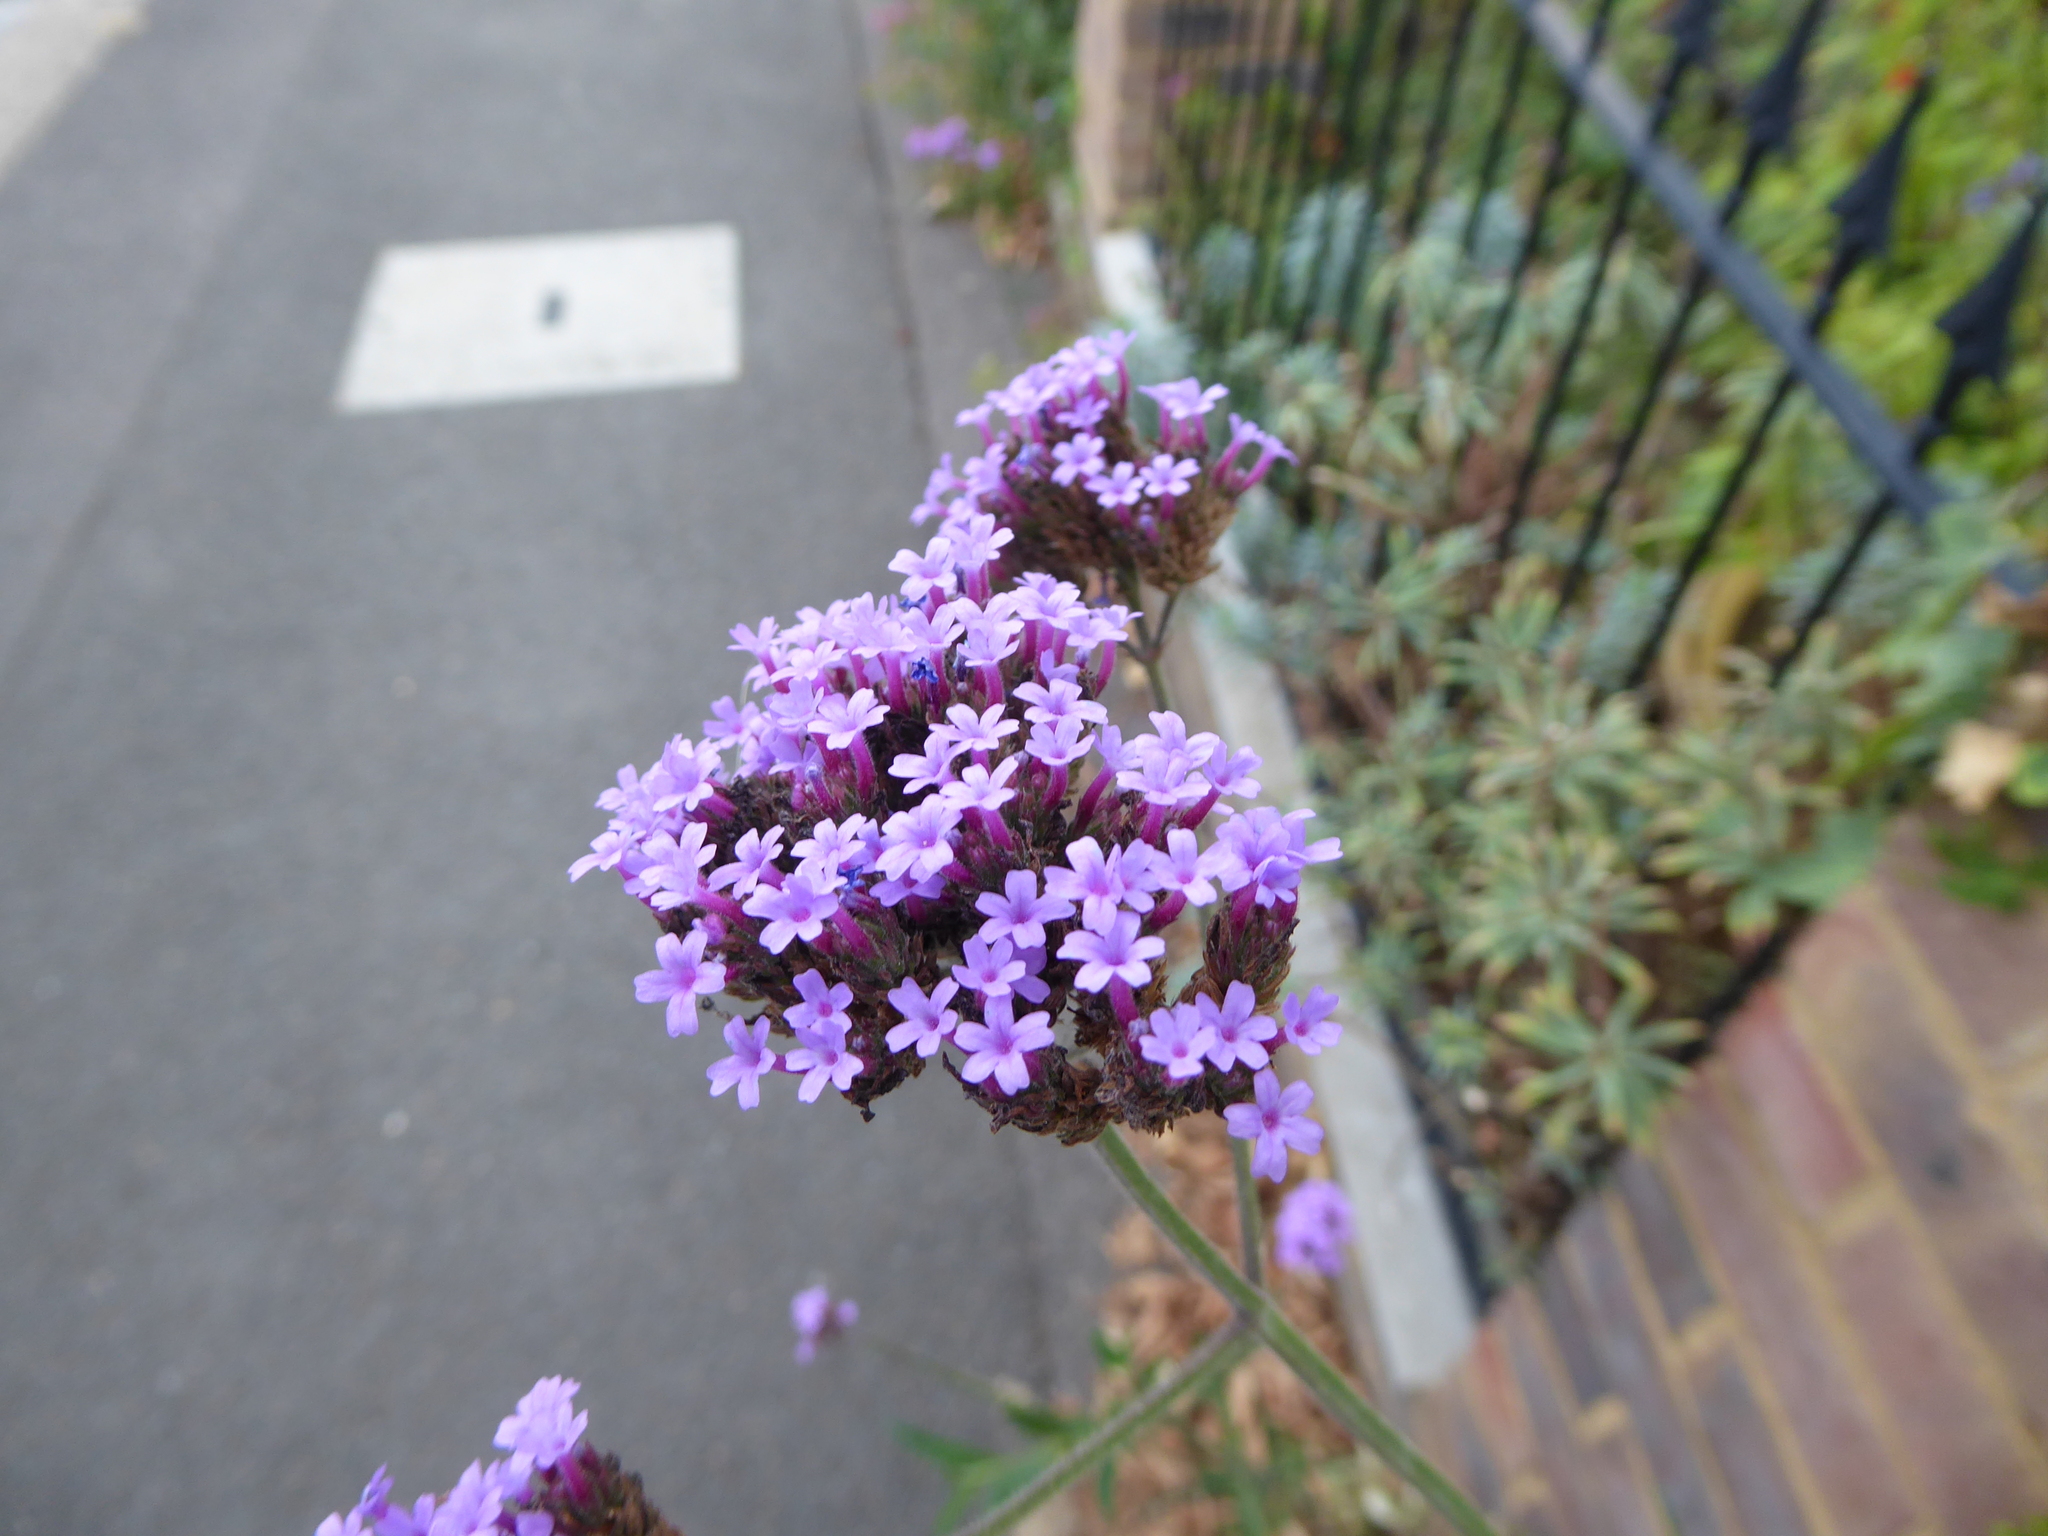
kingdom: Plantae
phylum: Tracheophyta
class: Magnoliopsida
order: Lamiales
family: Verbenaceae
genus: Verbena
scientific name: Verbena bonariensis
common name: Purpletop vervain
